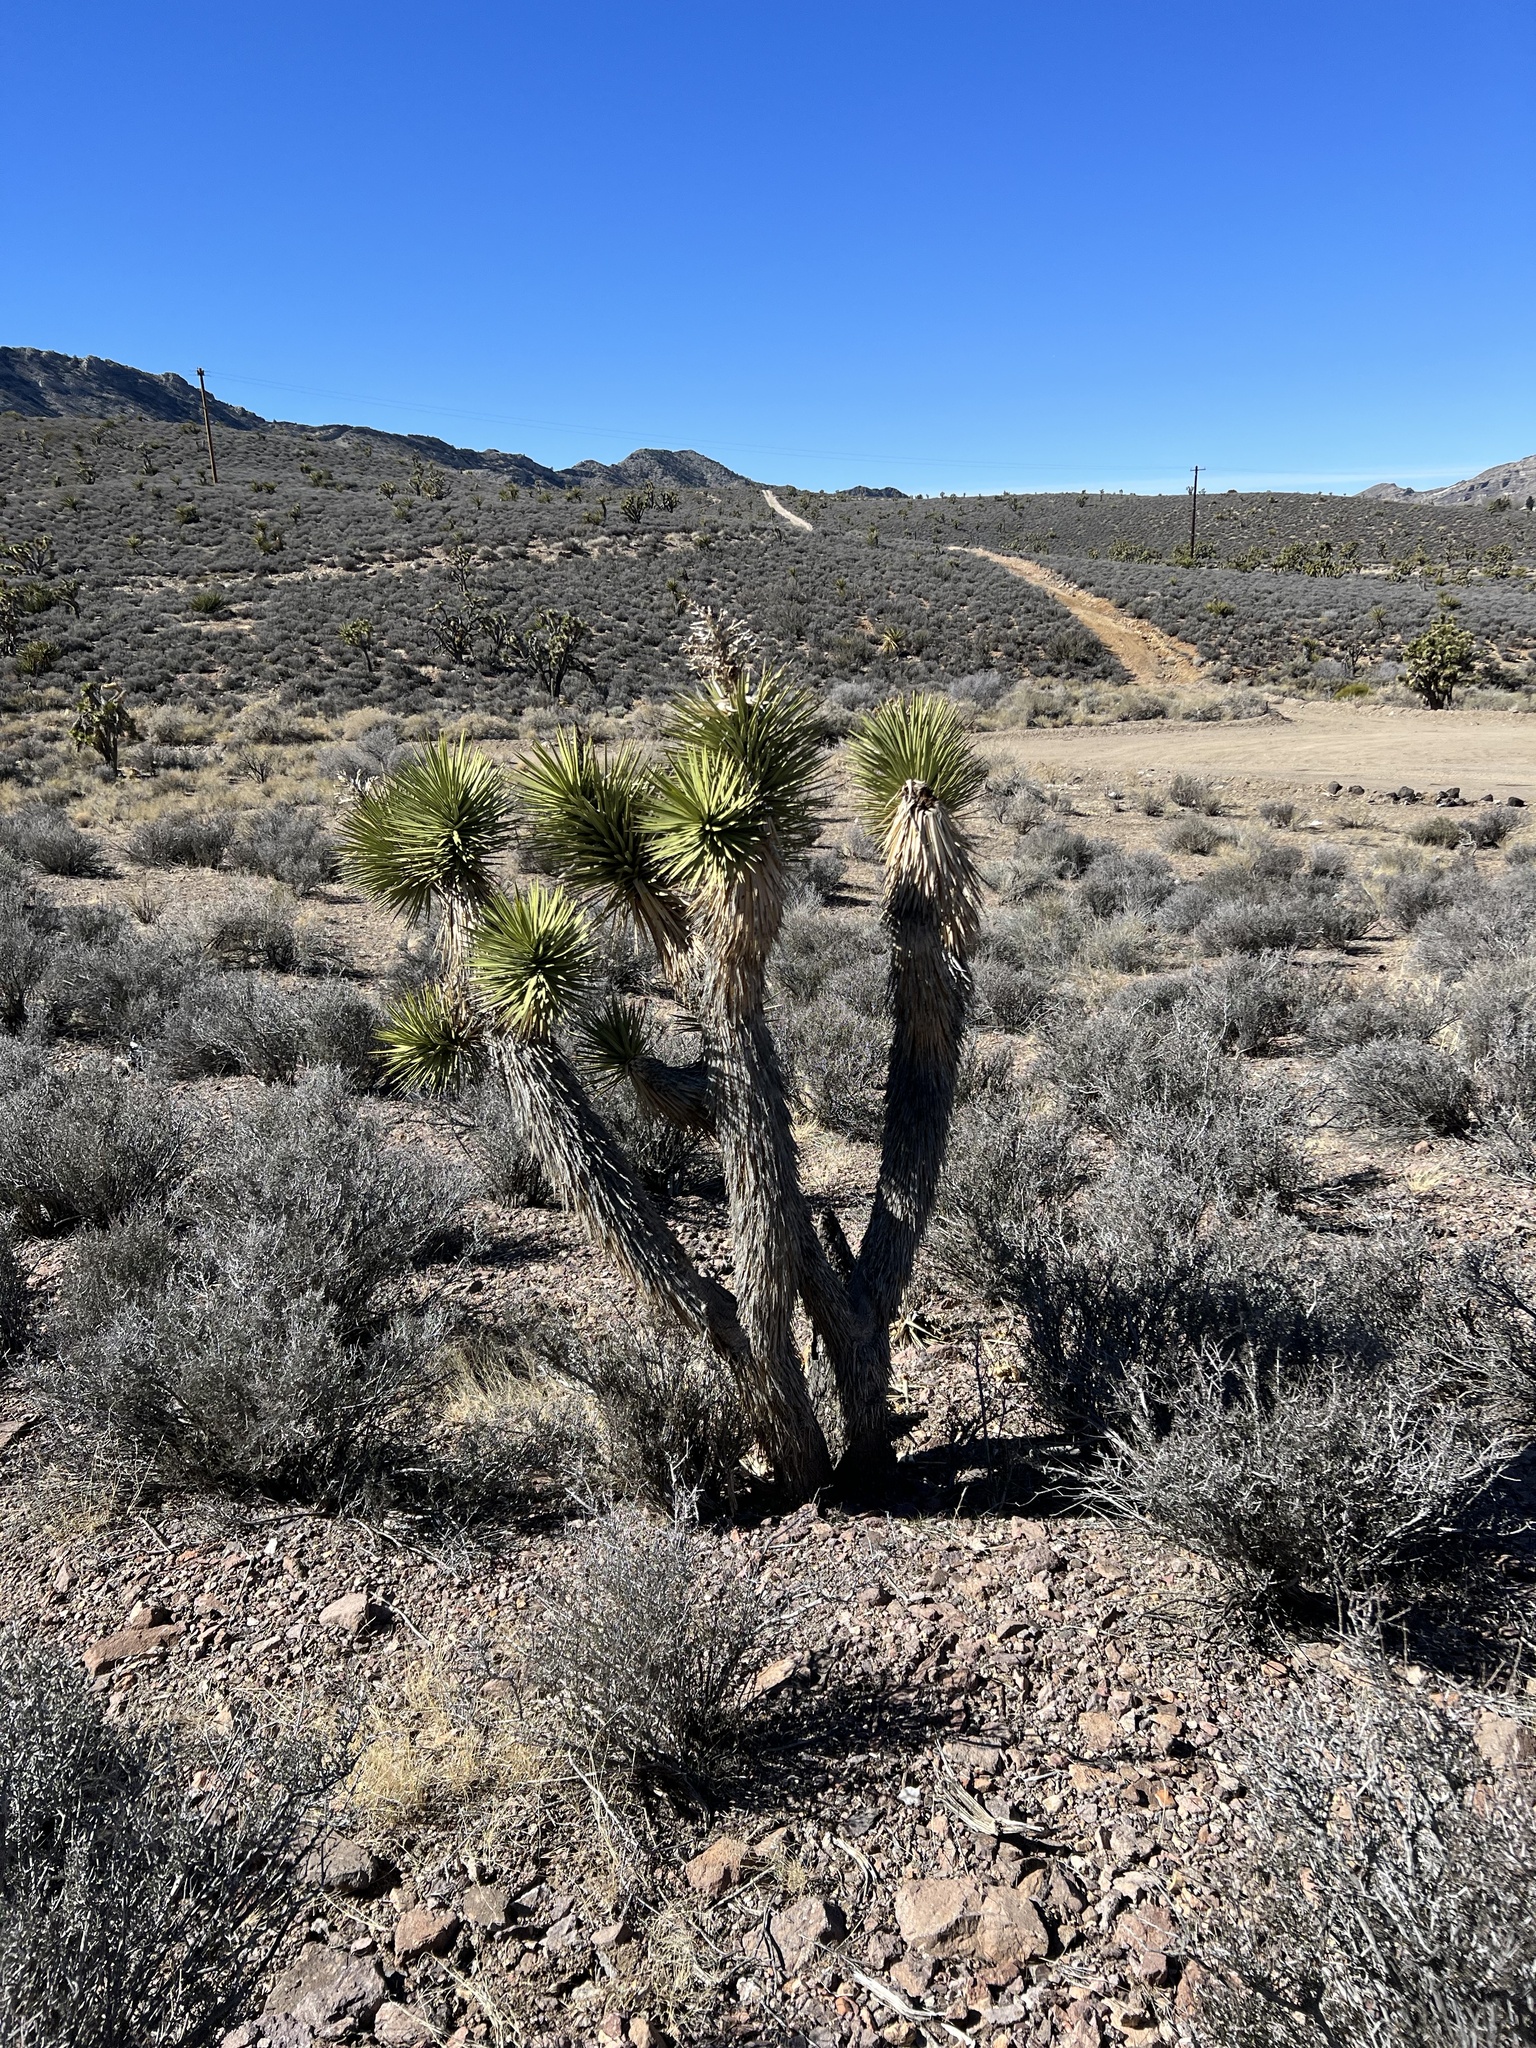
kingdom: Plantae
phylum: Tracheophyta
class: Liliopsida
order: Asparagales
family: Asparagaceae
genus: Yucca
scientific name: Yucca brevifolia
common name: Joshua tree
